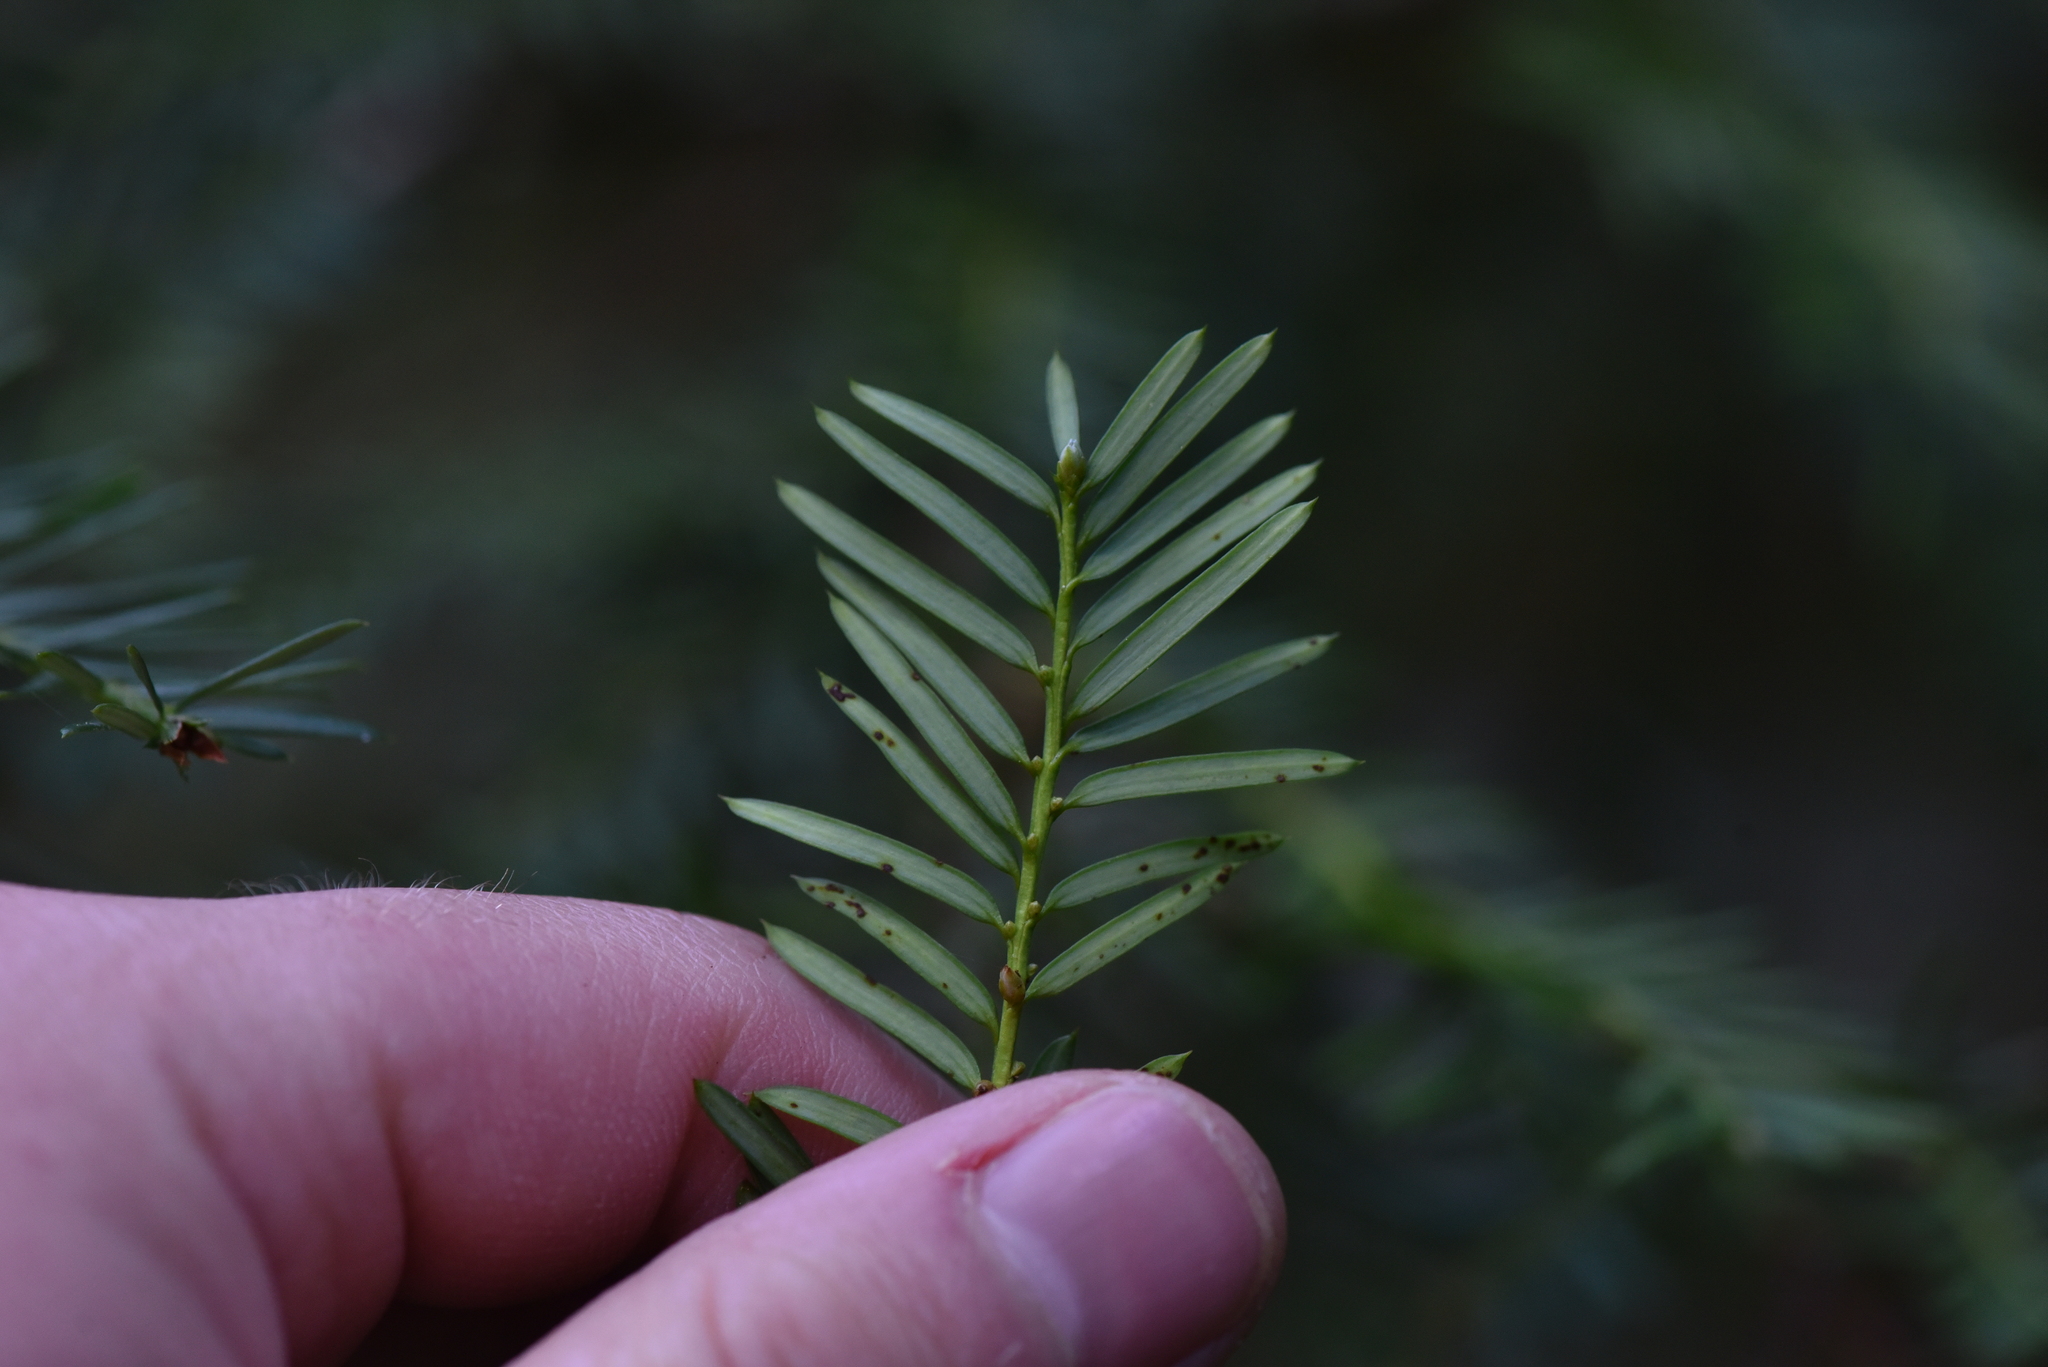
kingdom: Plantae
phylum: Tracheophyta
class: Pinopsida
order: Pinales
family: Taxaceae
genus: Taxus
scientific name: Taxus brevifolia
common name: Pacific yew
